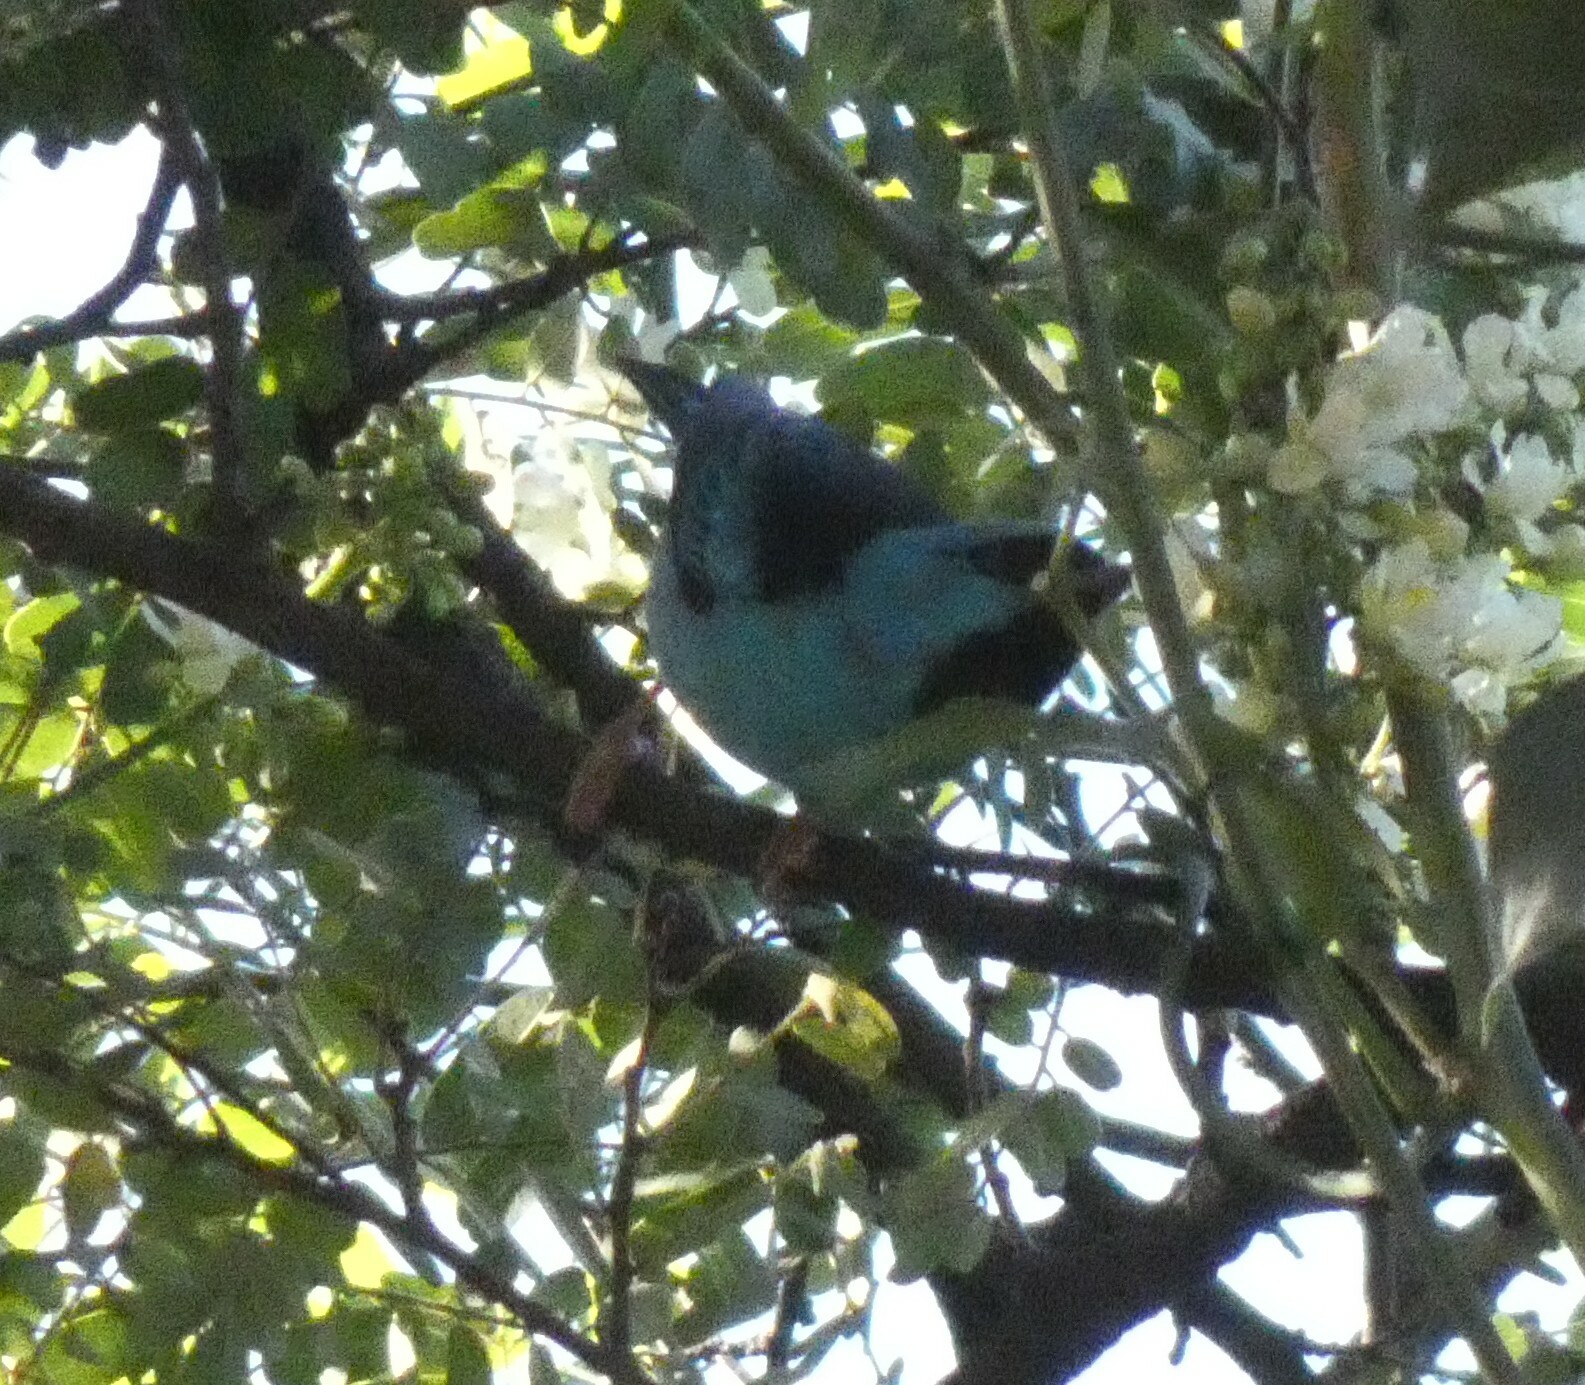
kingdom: Animalia
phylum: Chordata
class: Aves
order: Passeriformes
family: Thraupidae
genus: Dacnis
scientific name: Dacnis cayana
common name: Blue dacnis
